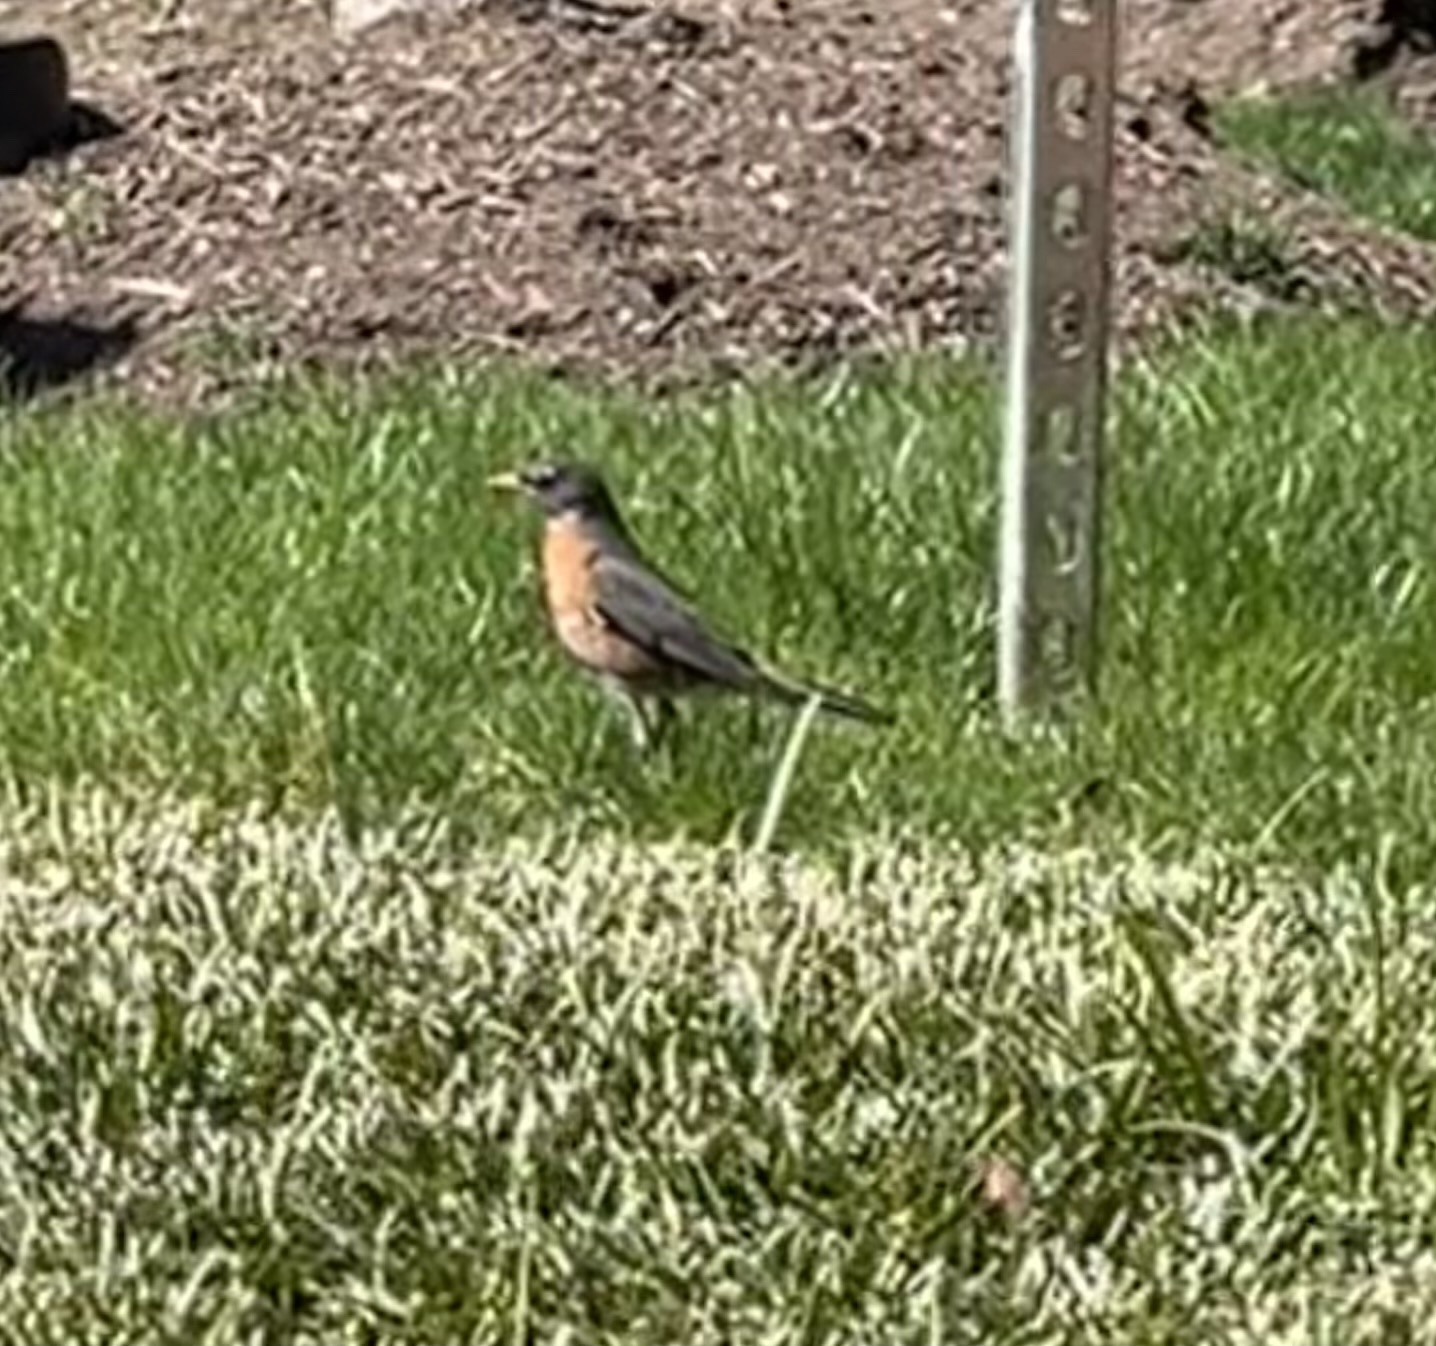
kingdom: Animalia
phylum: Chordata
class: Aves
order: Passeriformes
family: Turdidae
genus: Turdus
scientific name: Turdus migratorius
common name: American robin
